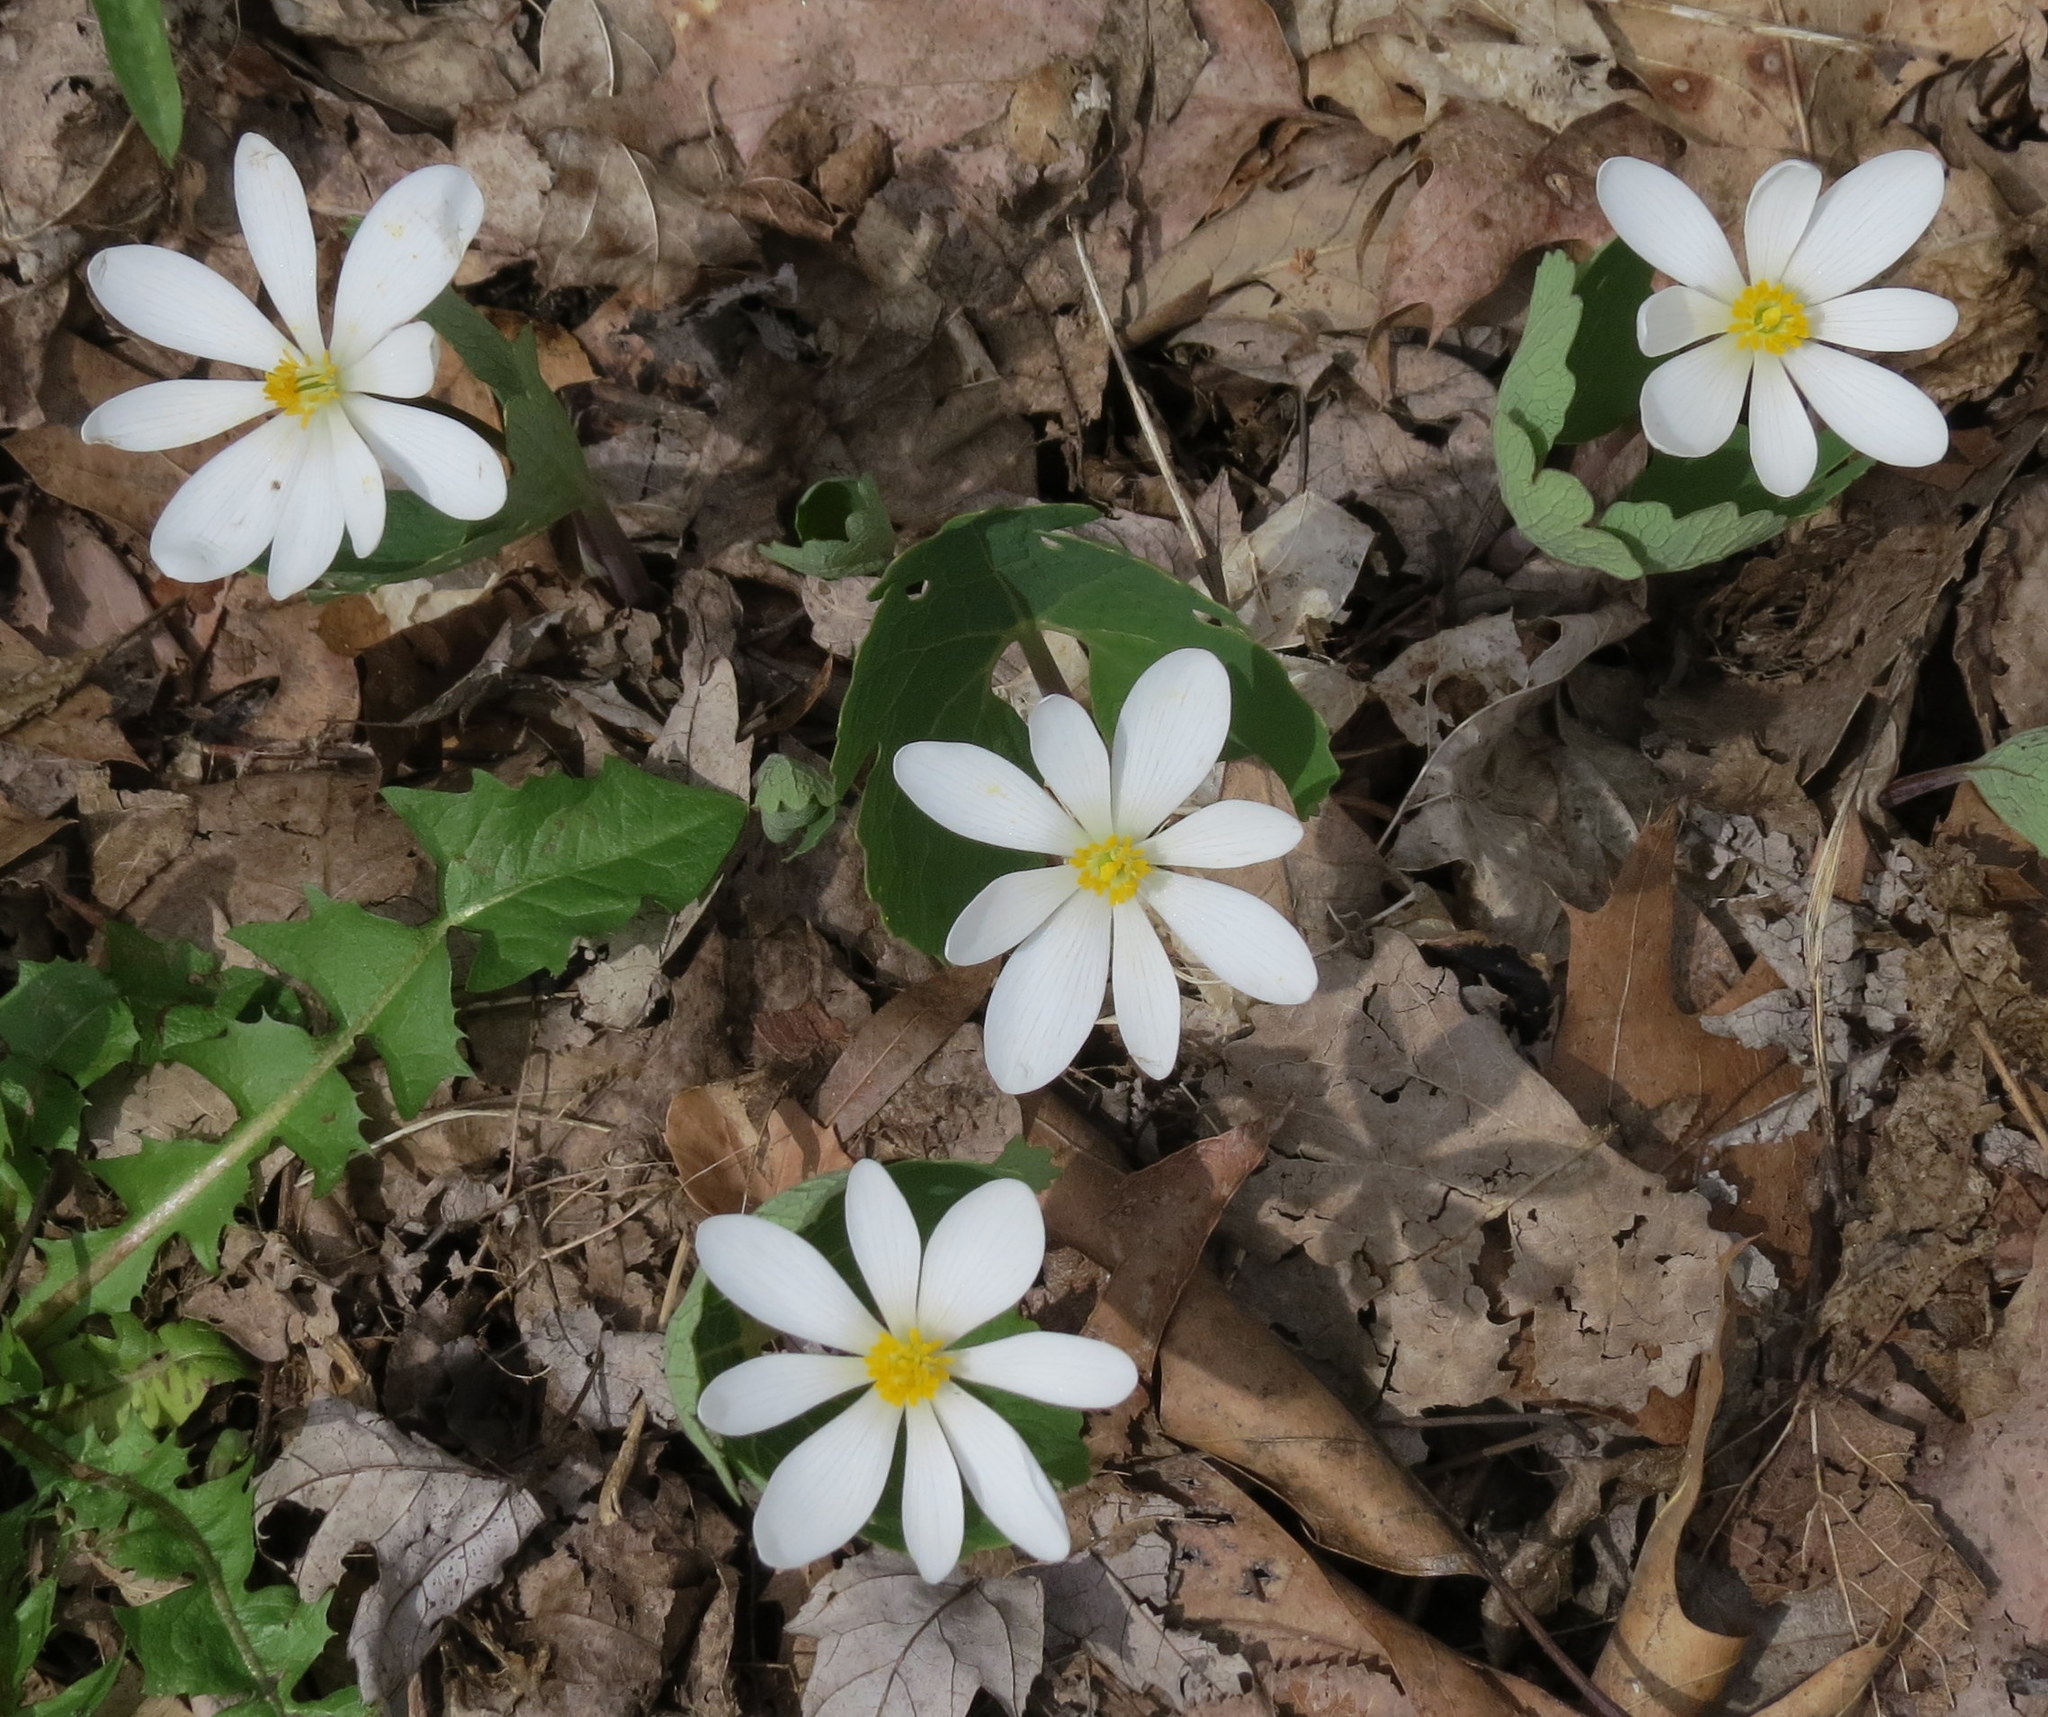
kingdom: Plantae
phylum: Tracheophyta
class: Magnoliopsida
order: Ranunculales
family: Papaveraceae
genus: Sanguinaria
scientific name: Sanguinaria canadensis
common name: Bloodroot
